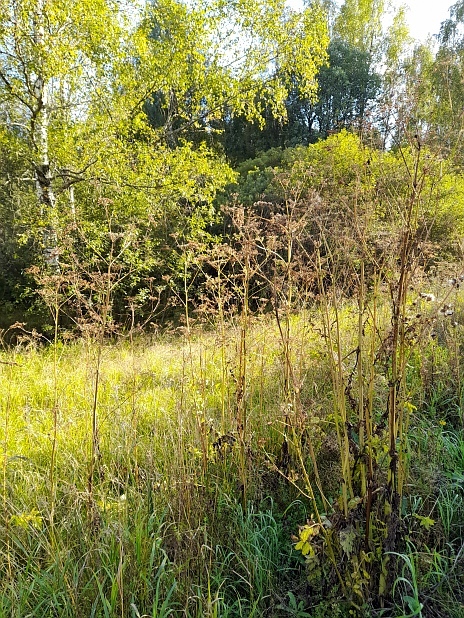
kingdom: Plantae
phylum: Tracheophyta
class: Magnoliopsida
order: Apiales
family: Apiaceae
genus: Pastinaca
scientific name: Pastinaca sativa
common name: Wild parsnip
